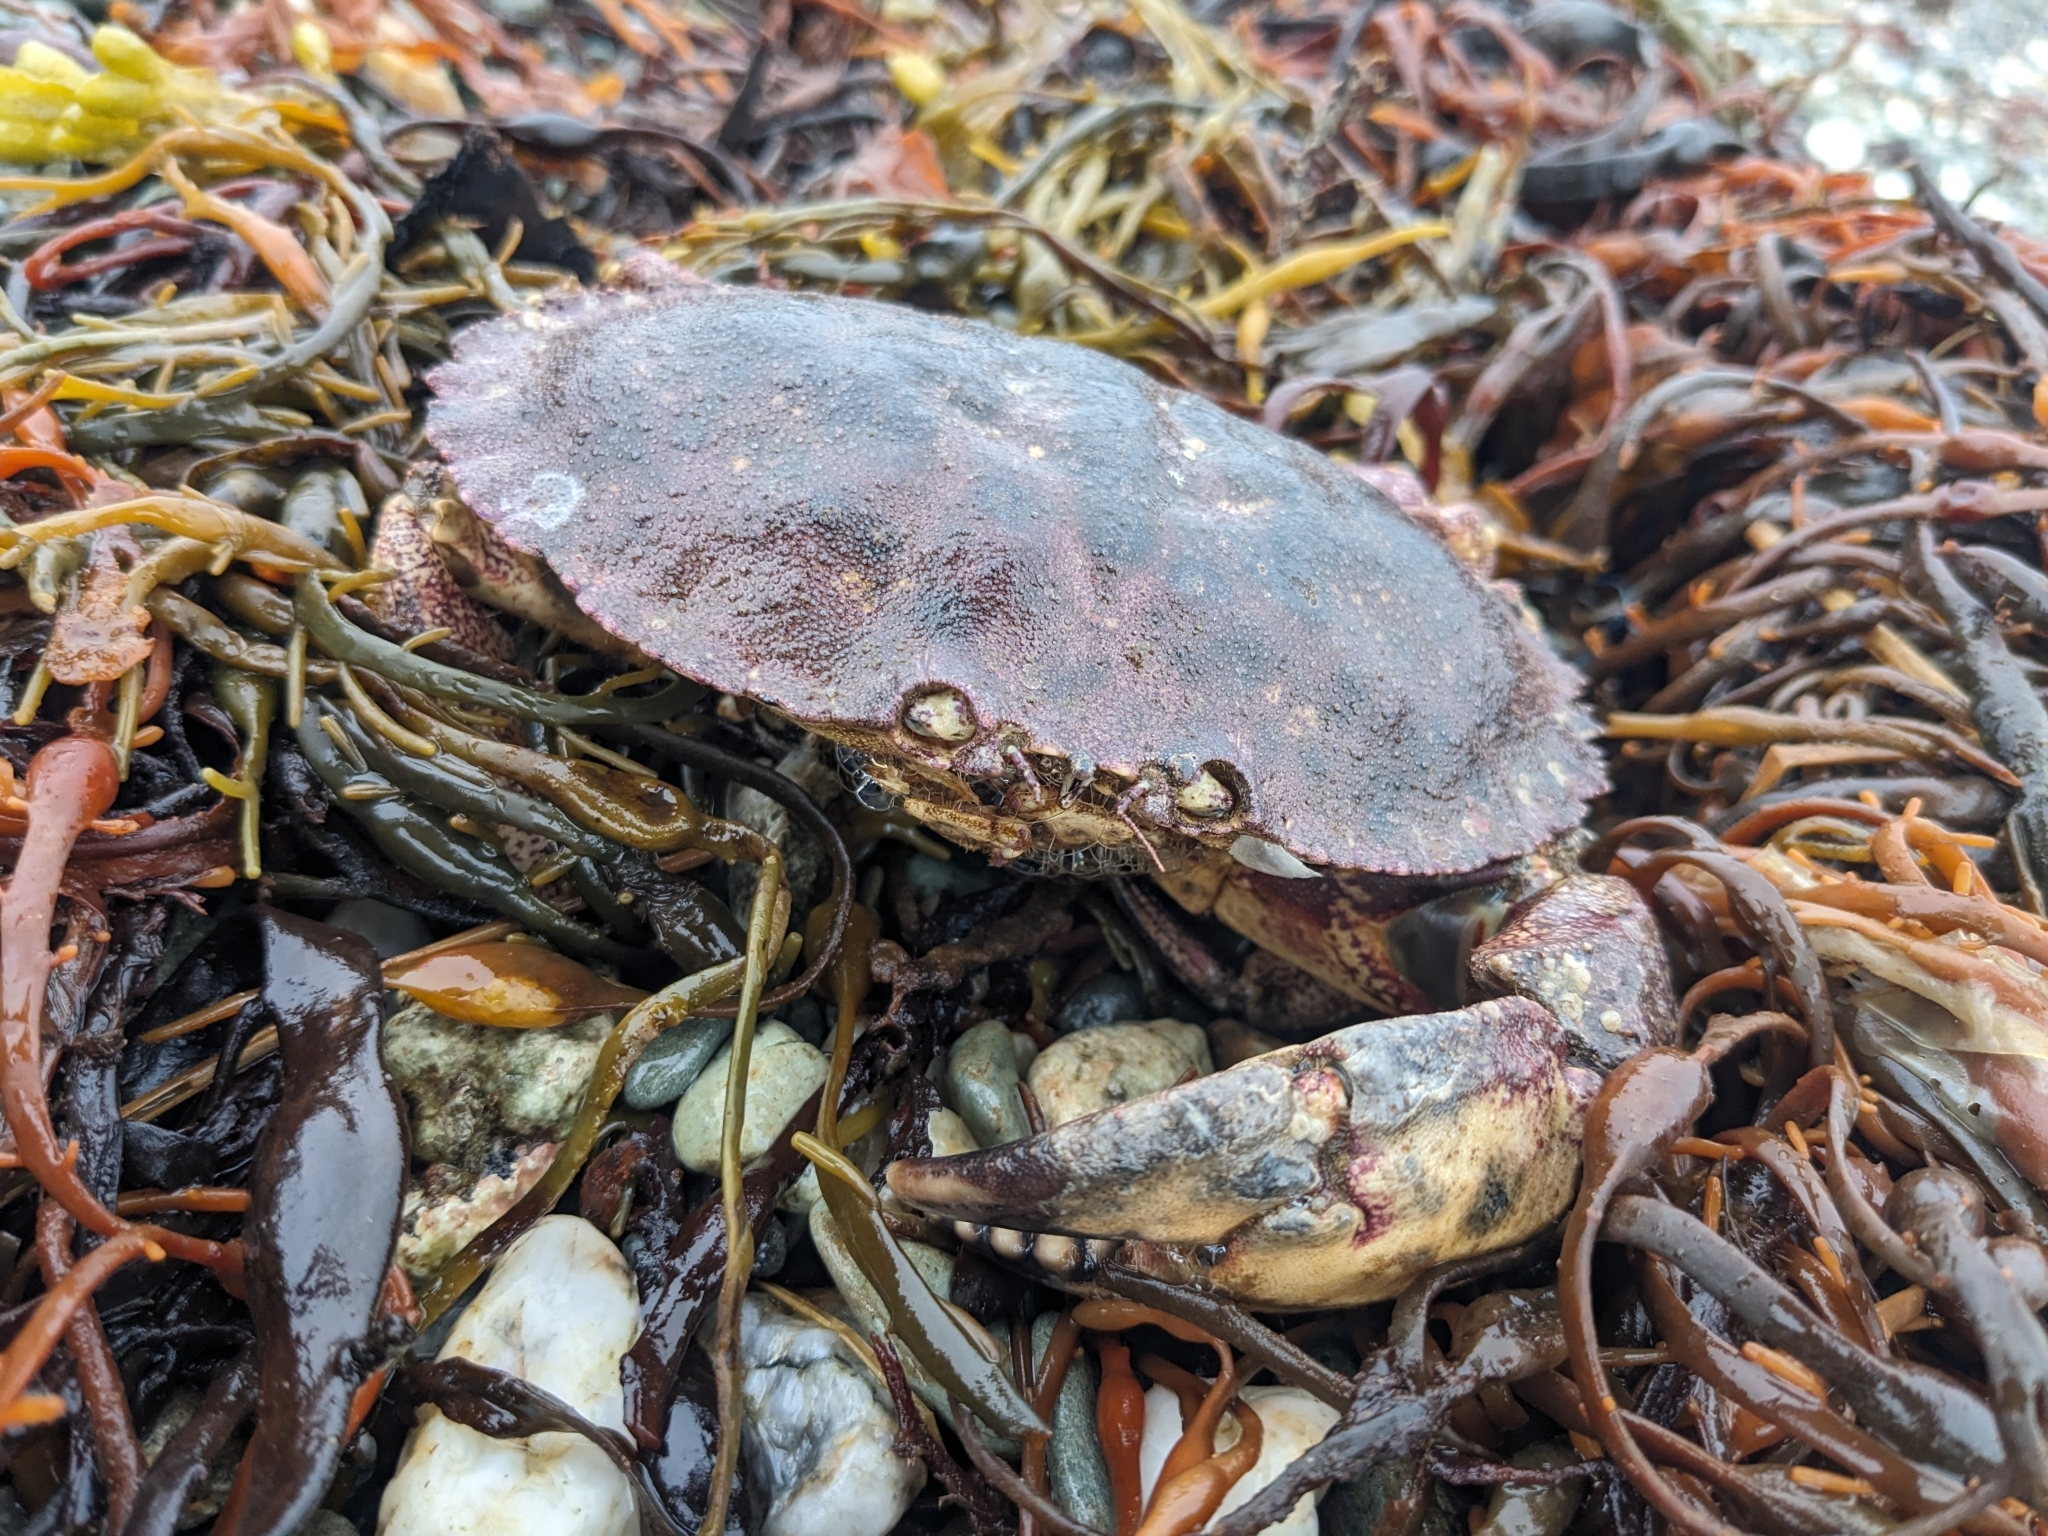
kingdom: Animalia
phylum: Arthropoda
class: Malacostraca
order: Decapoda
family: Cancridae
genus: Cancer
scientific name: Cancer borealis
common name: Jonah crab
